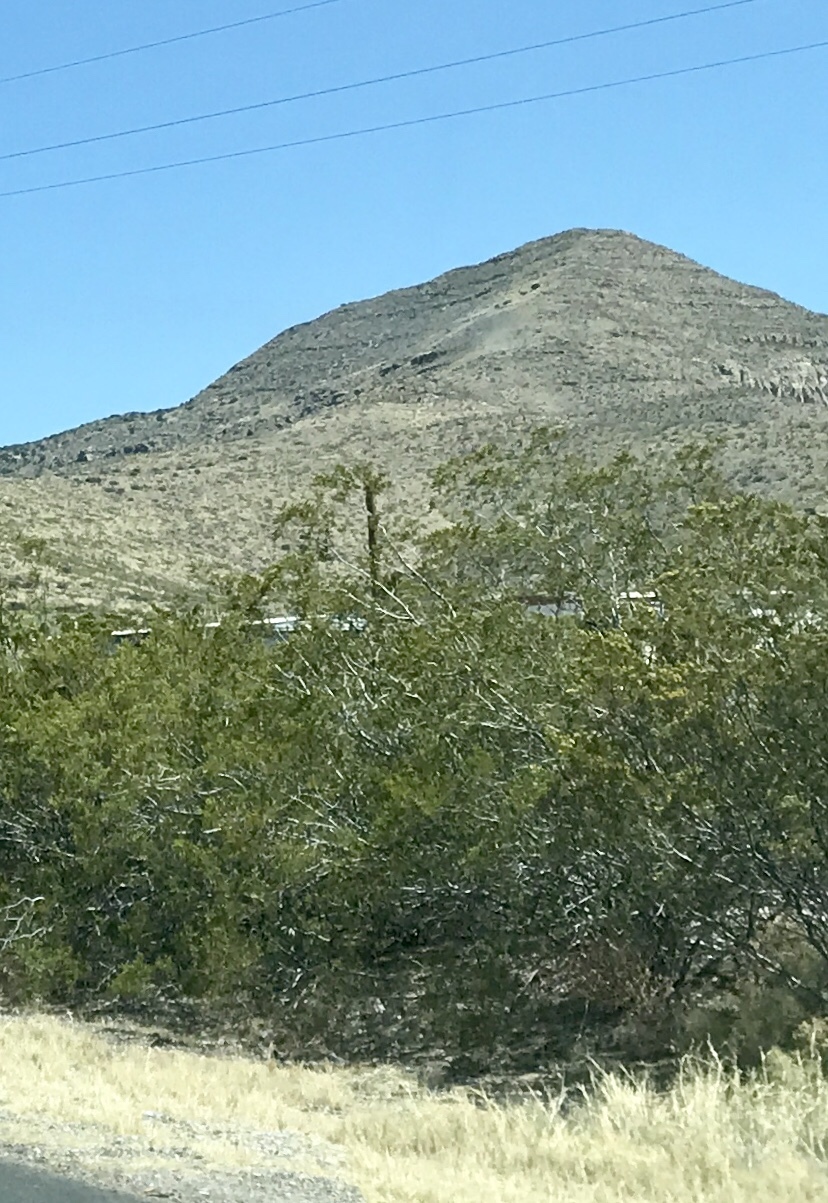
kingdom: Plantae
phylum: Tracheophyta
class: Magnoliopsida
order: Zygophyllales
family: Zygophyllaceae
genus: Larrea
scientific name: Larrea tridentata
